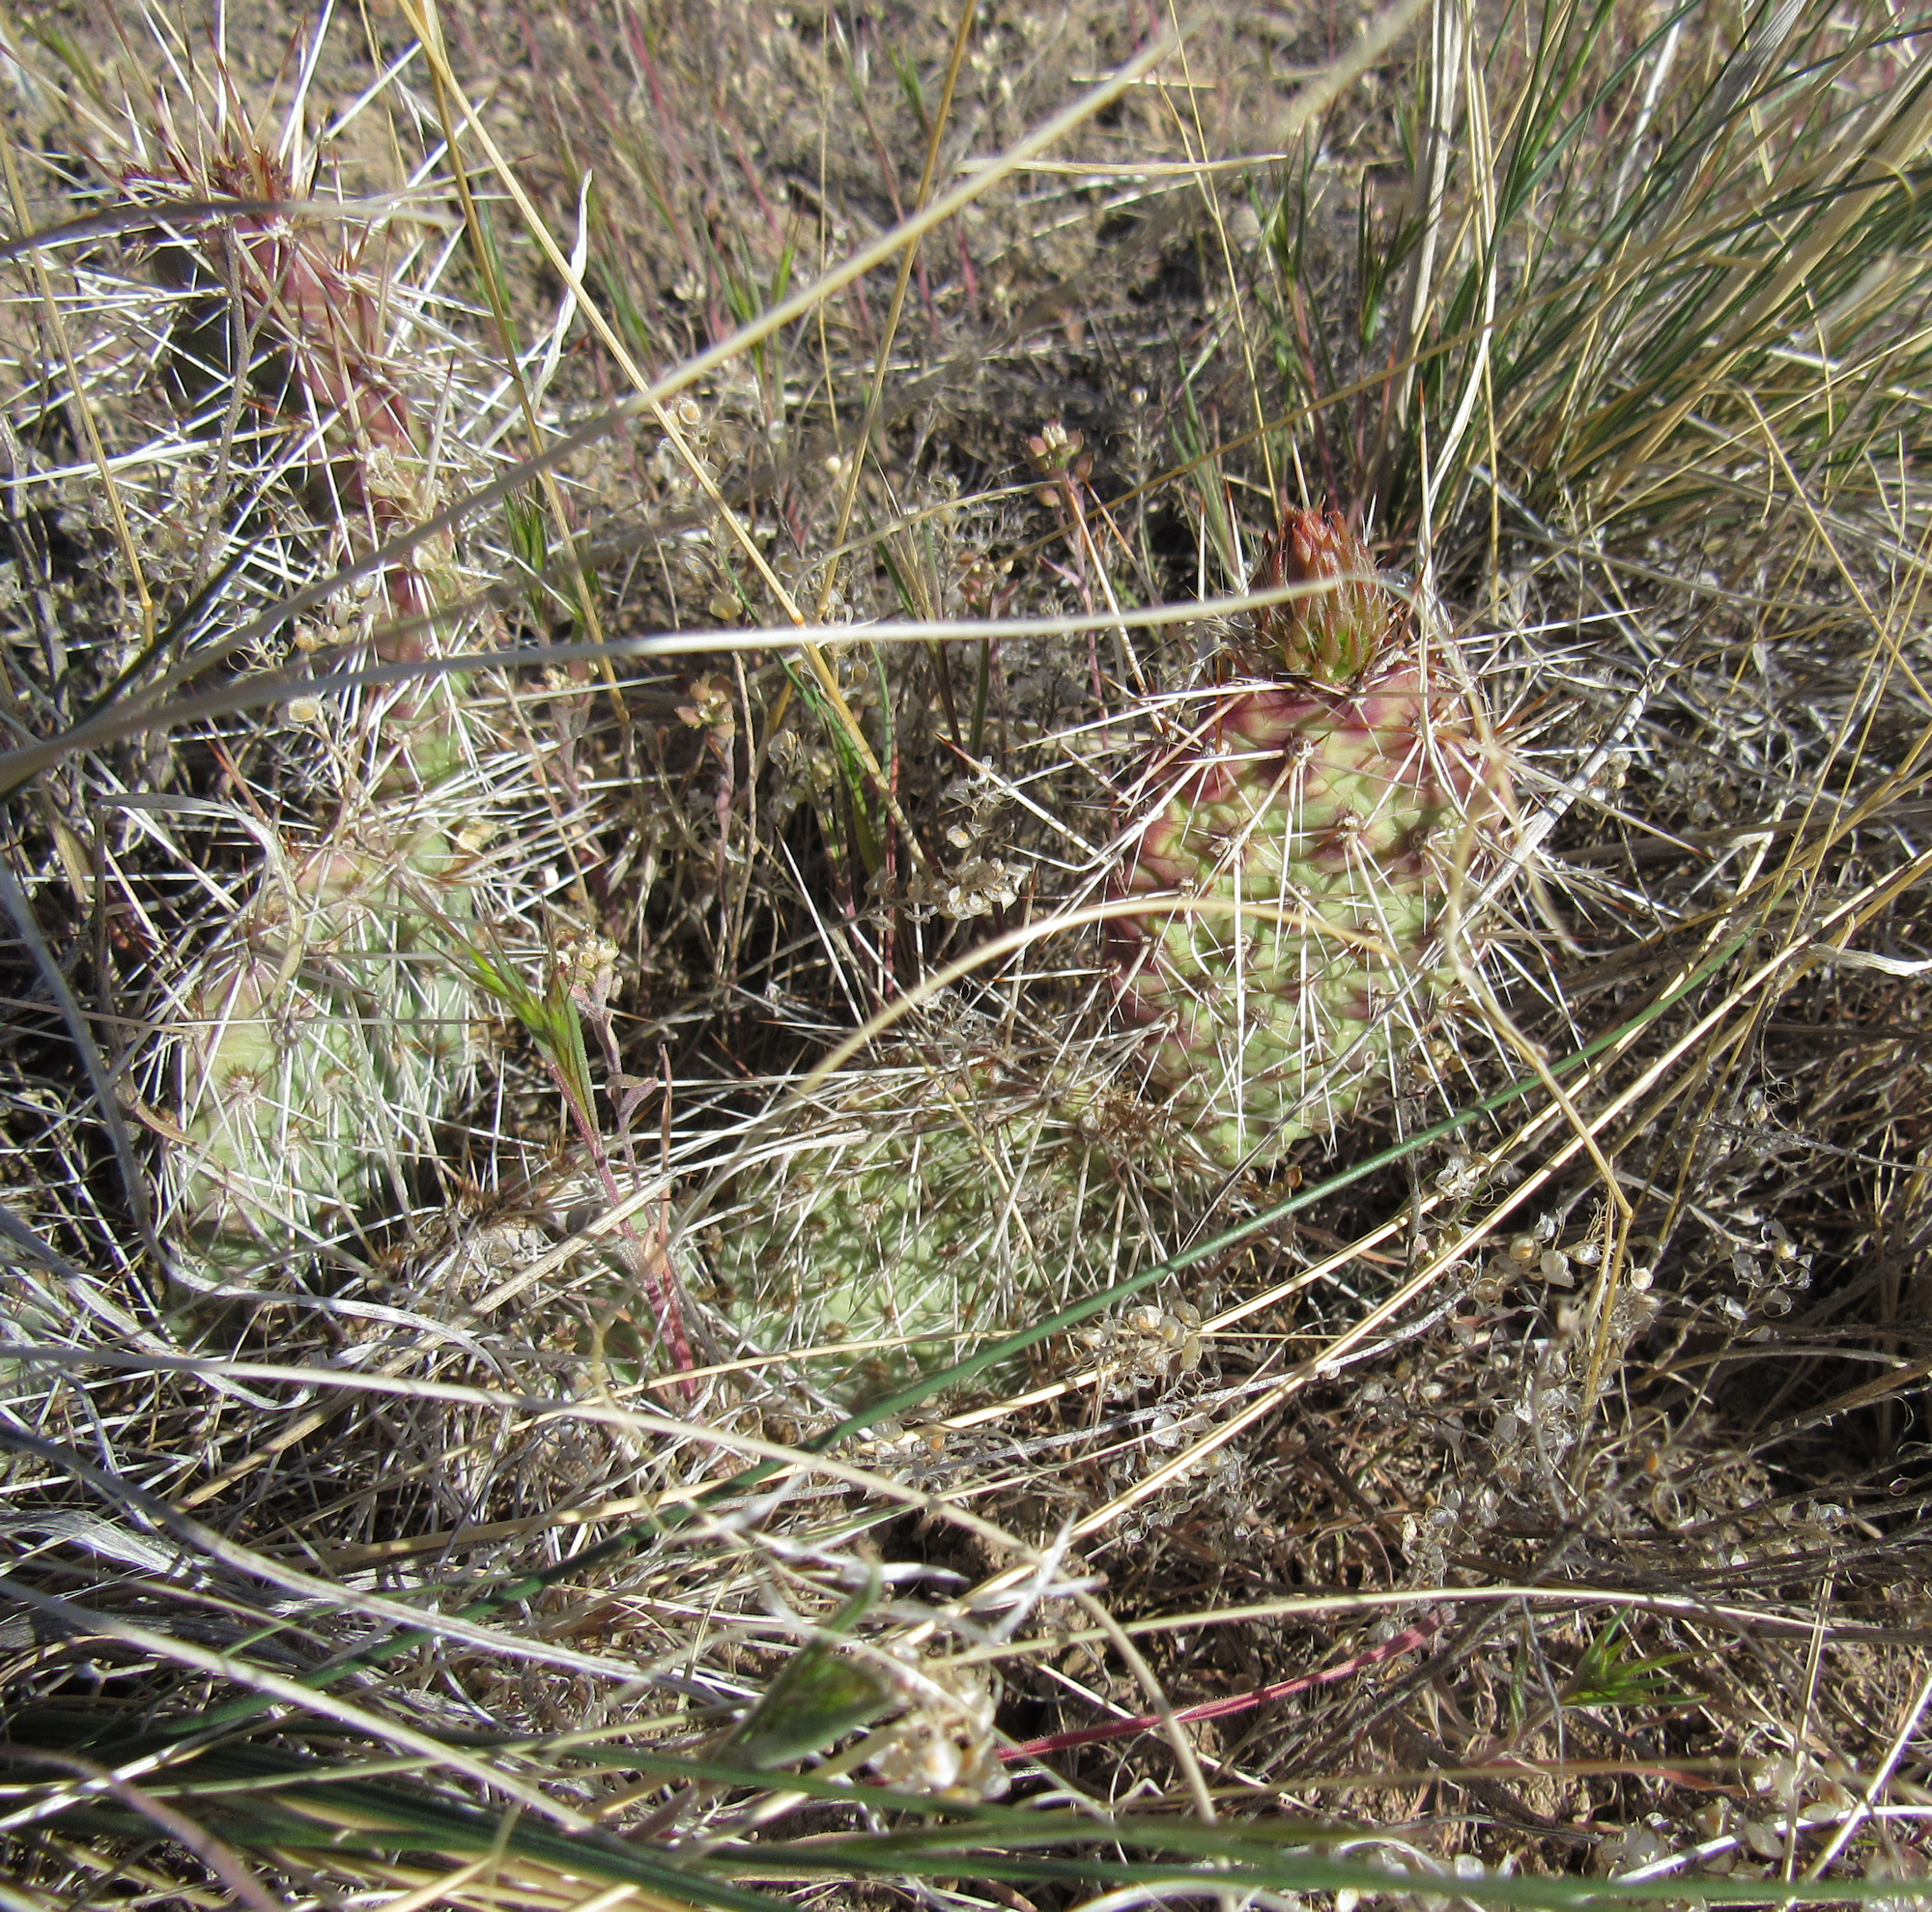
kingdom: Plantae
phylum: Tracheophyta
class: Magnoliopsida
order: Caryophyllales
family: Cactaceae
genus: Opuntia
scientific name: Opuntia polyacantha
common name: Plains prickly-pear
